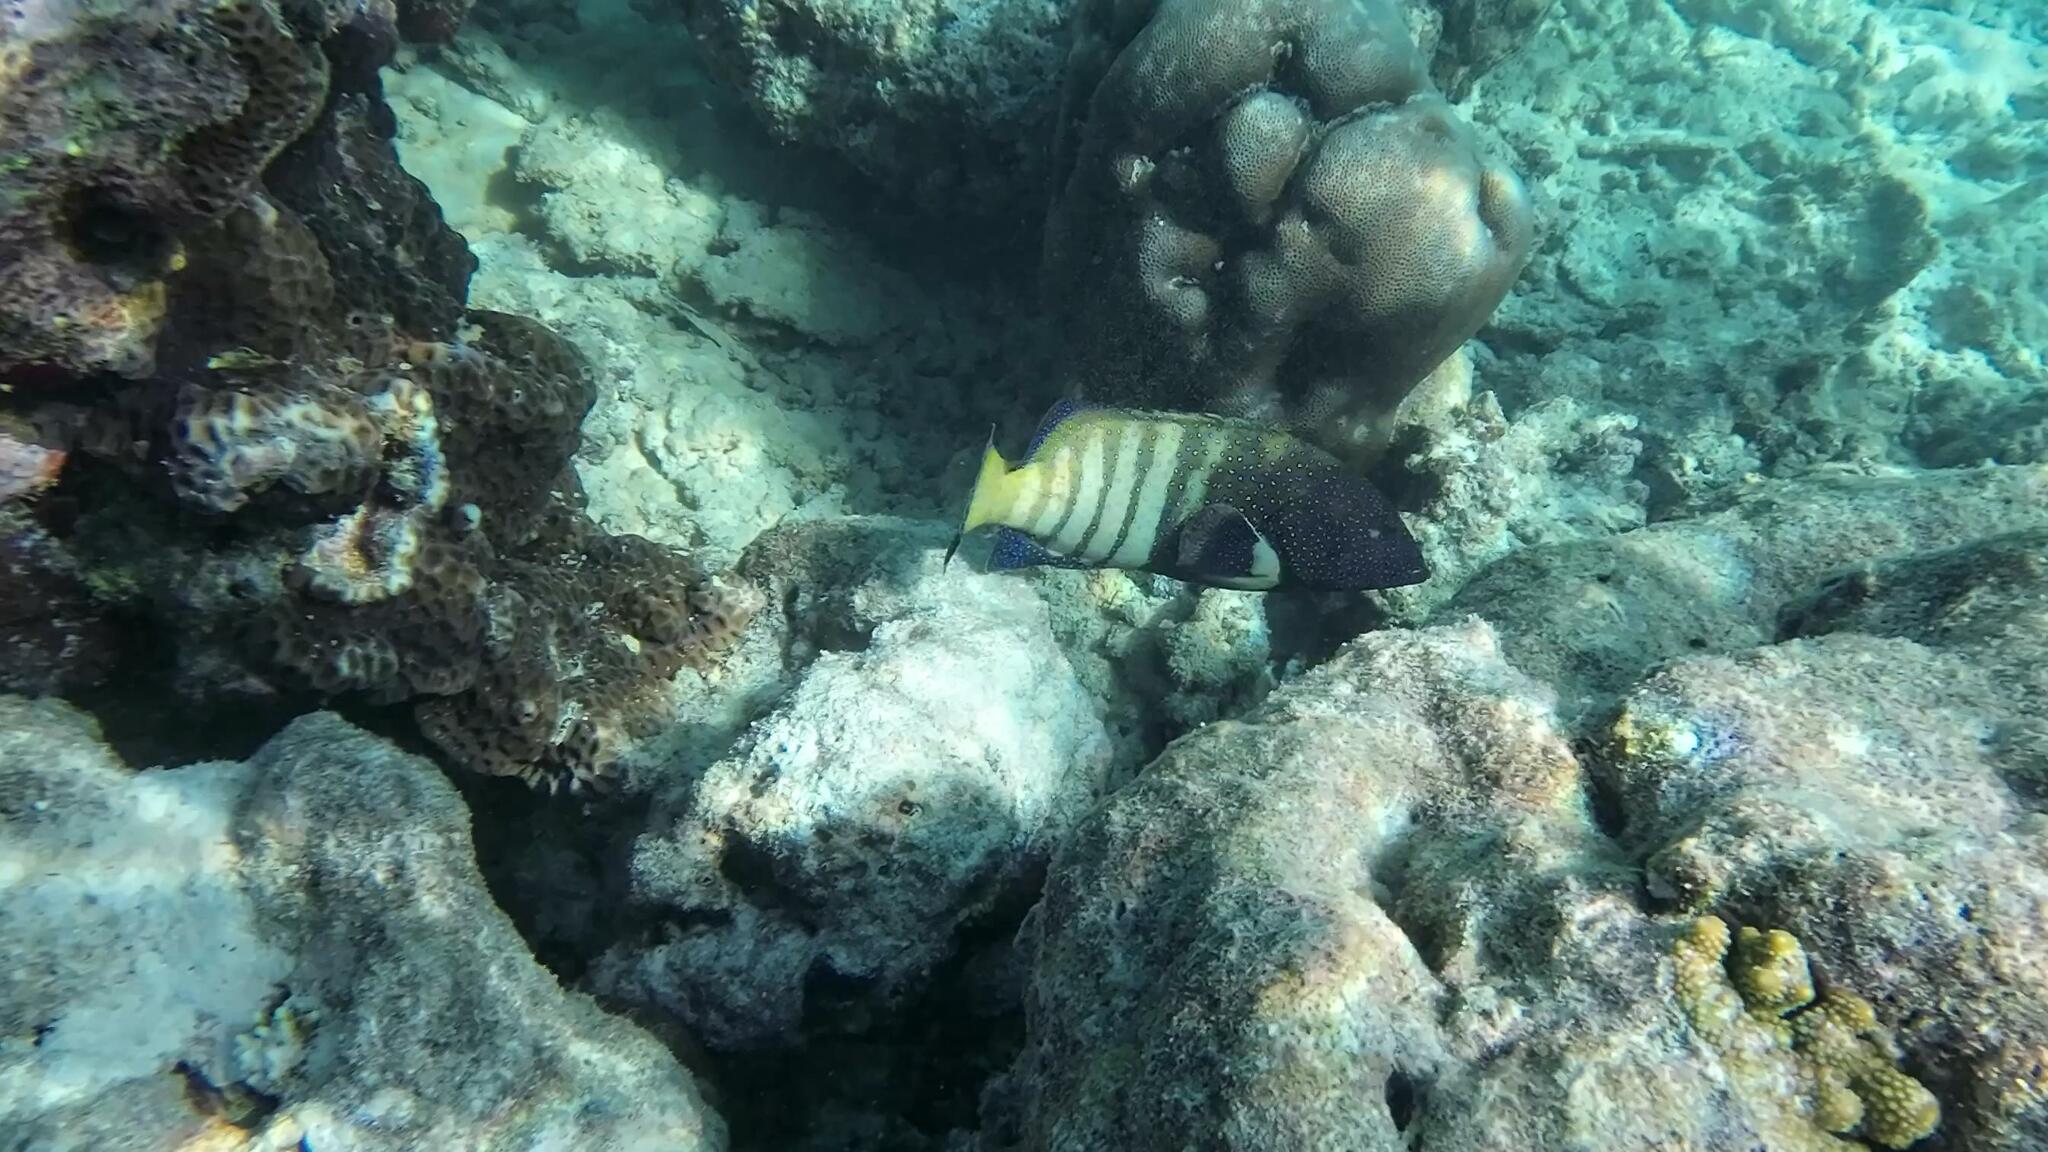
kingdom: Animalia
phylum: Chordata
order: Perciformes
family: Serranidae
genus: Cephalopholis
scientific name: Cephalopholis argus
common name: Peacock grouper
